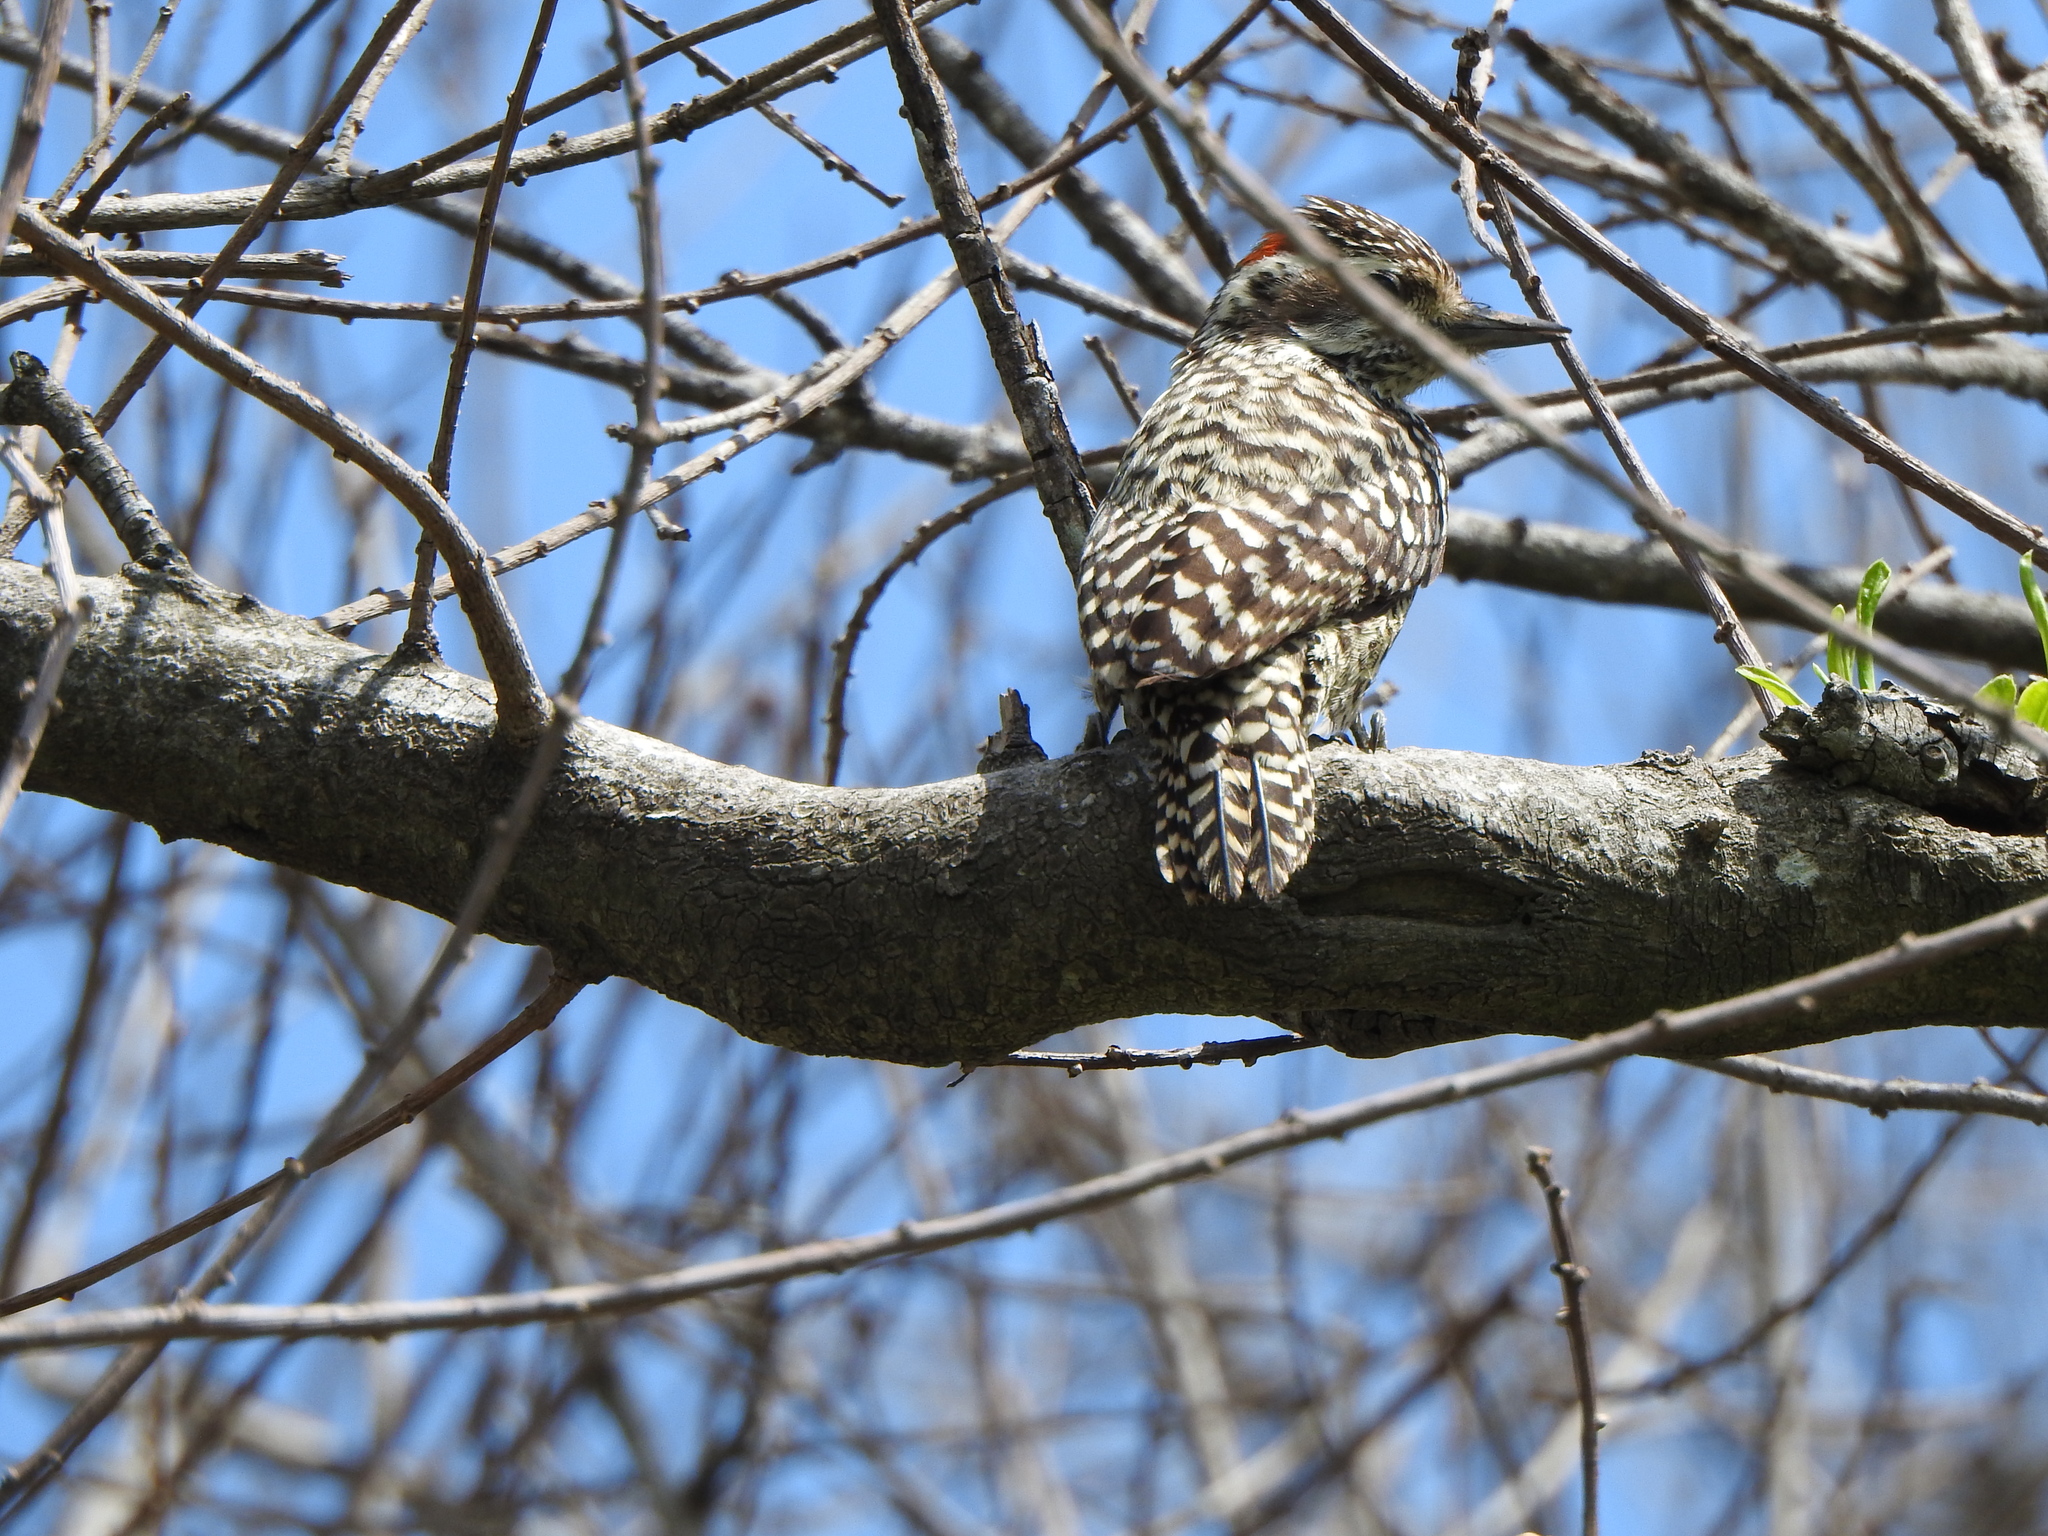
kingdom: Animalia
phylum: Chordata
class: Aves
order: Piciformes
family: Picidae
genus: Veniliornis
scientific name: Veniliornis mixtus
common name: Checkered woodpecker
